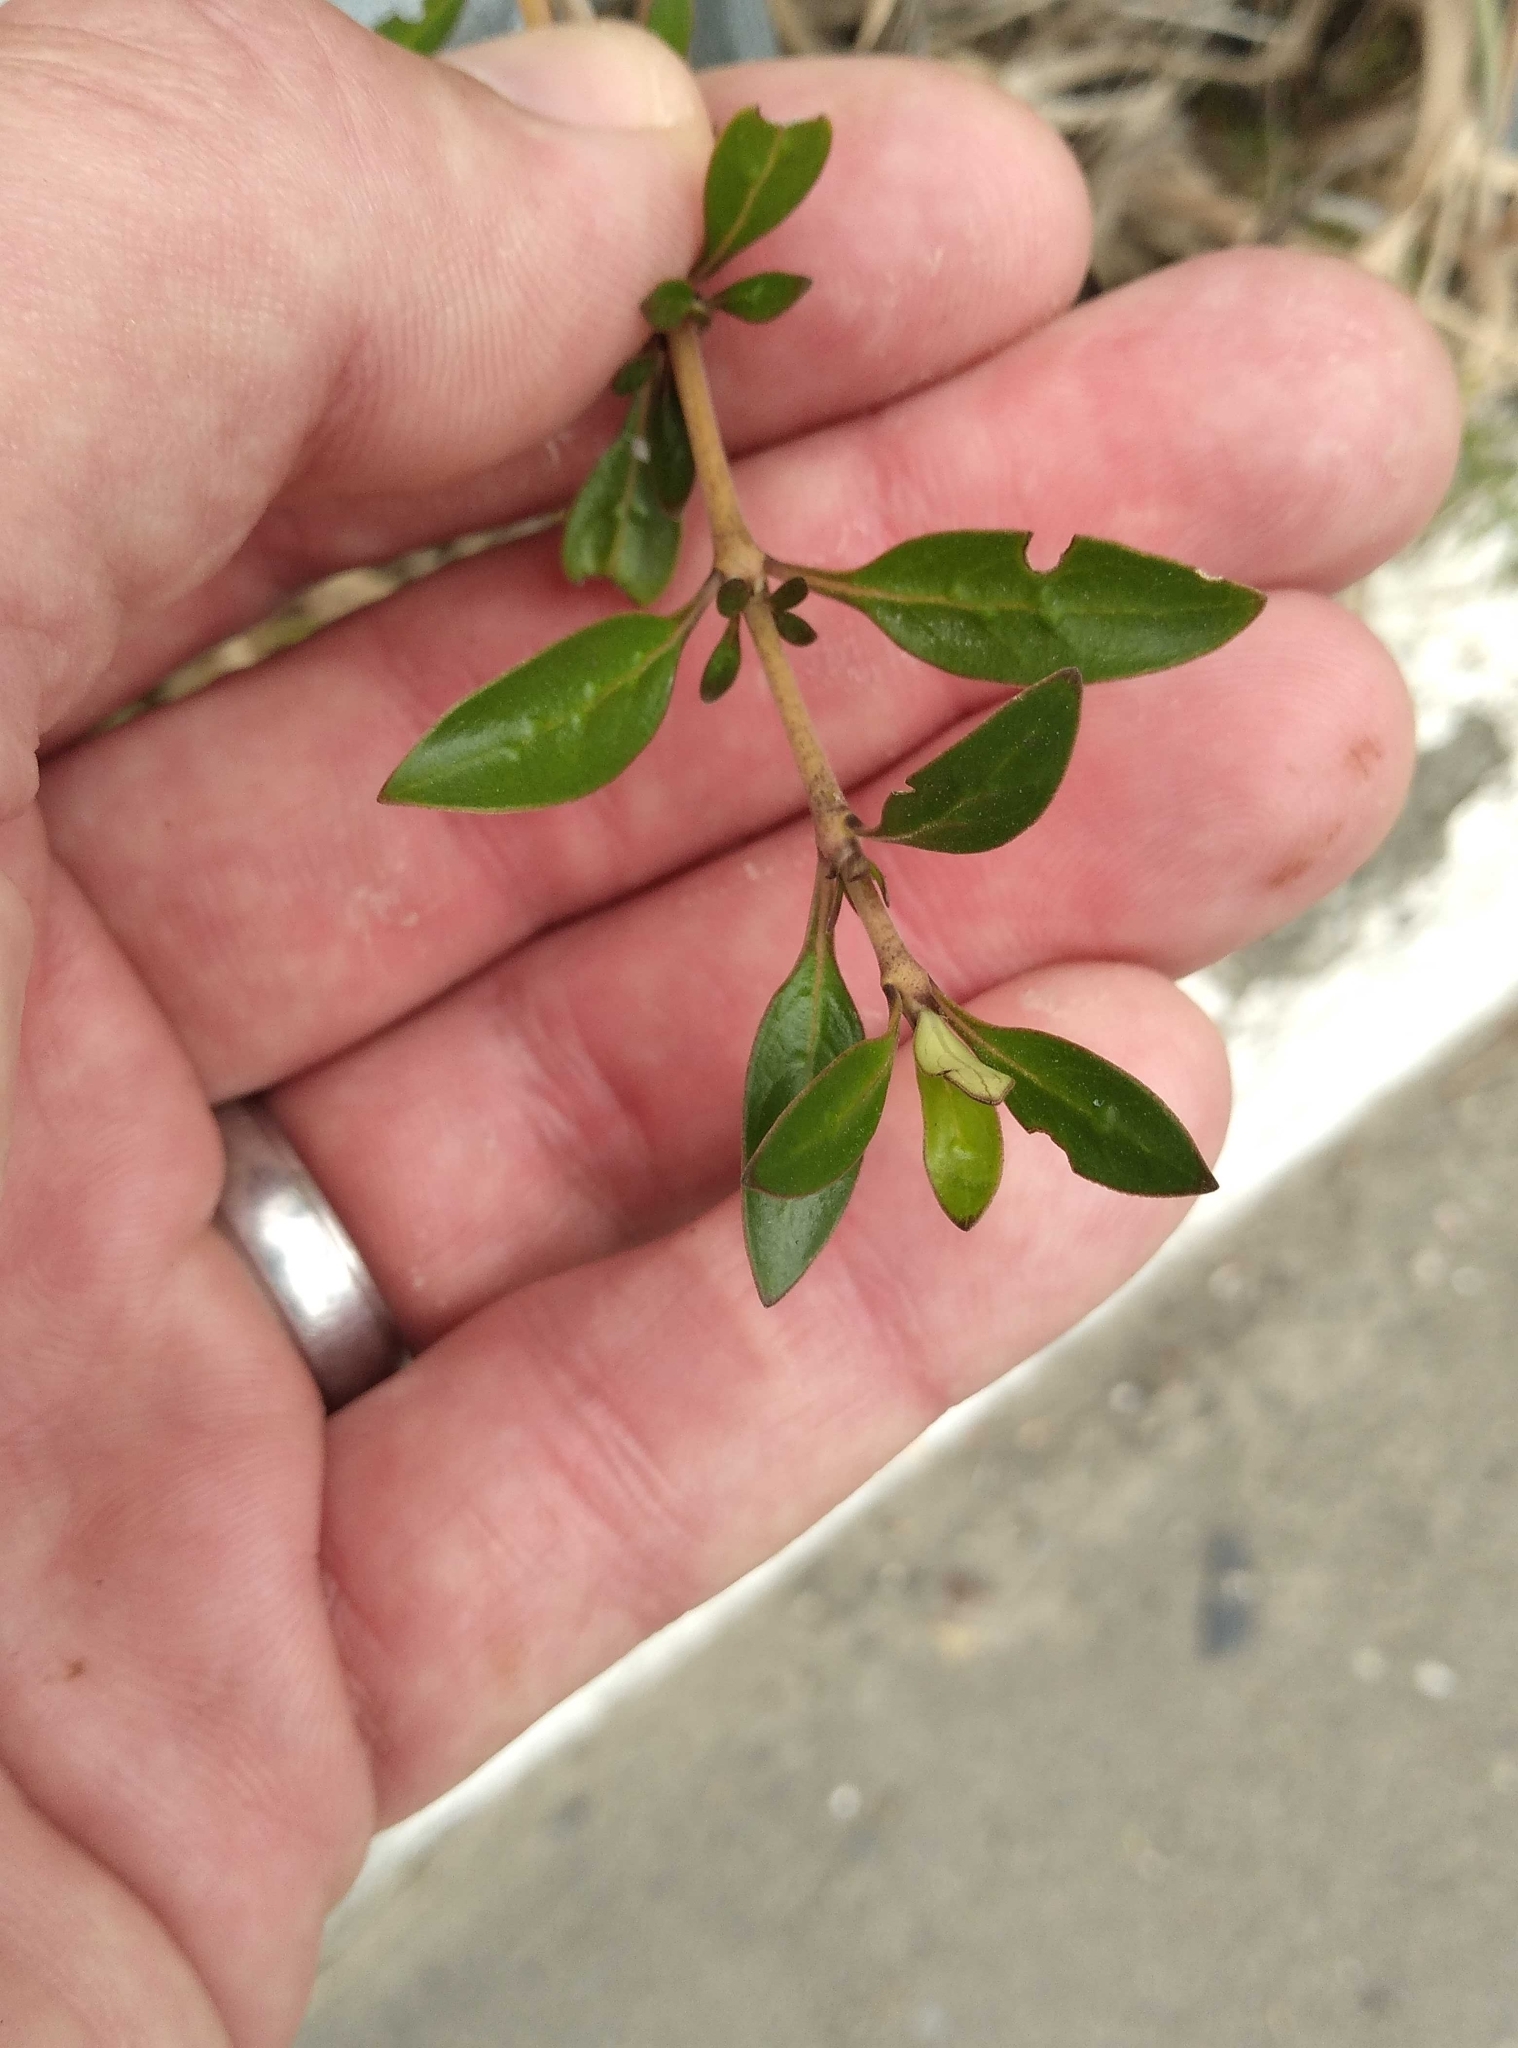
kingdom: Plantae
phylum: Tracheophyta
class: Magnoliopsida
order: Gentianales
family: Rubiaceae
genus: Coprosma
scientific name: Coprosma cunninghamii
